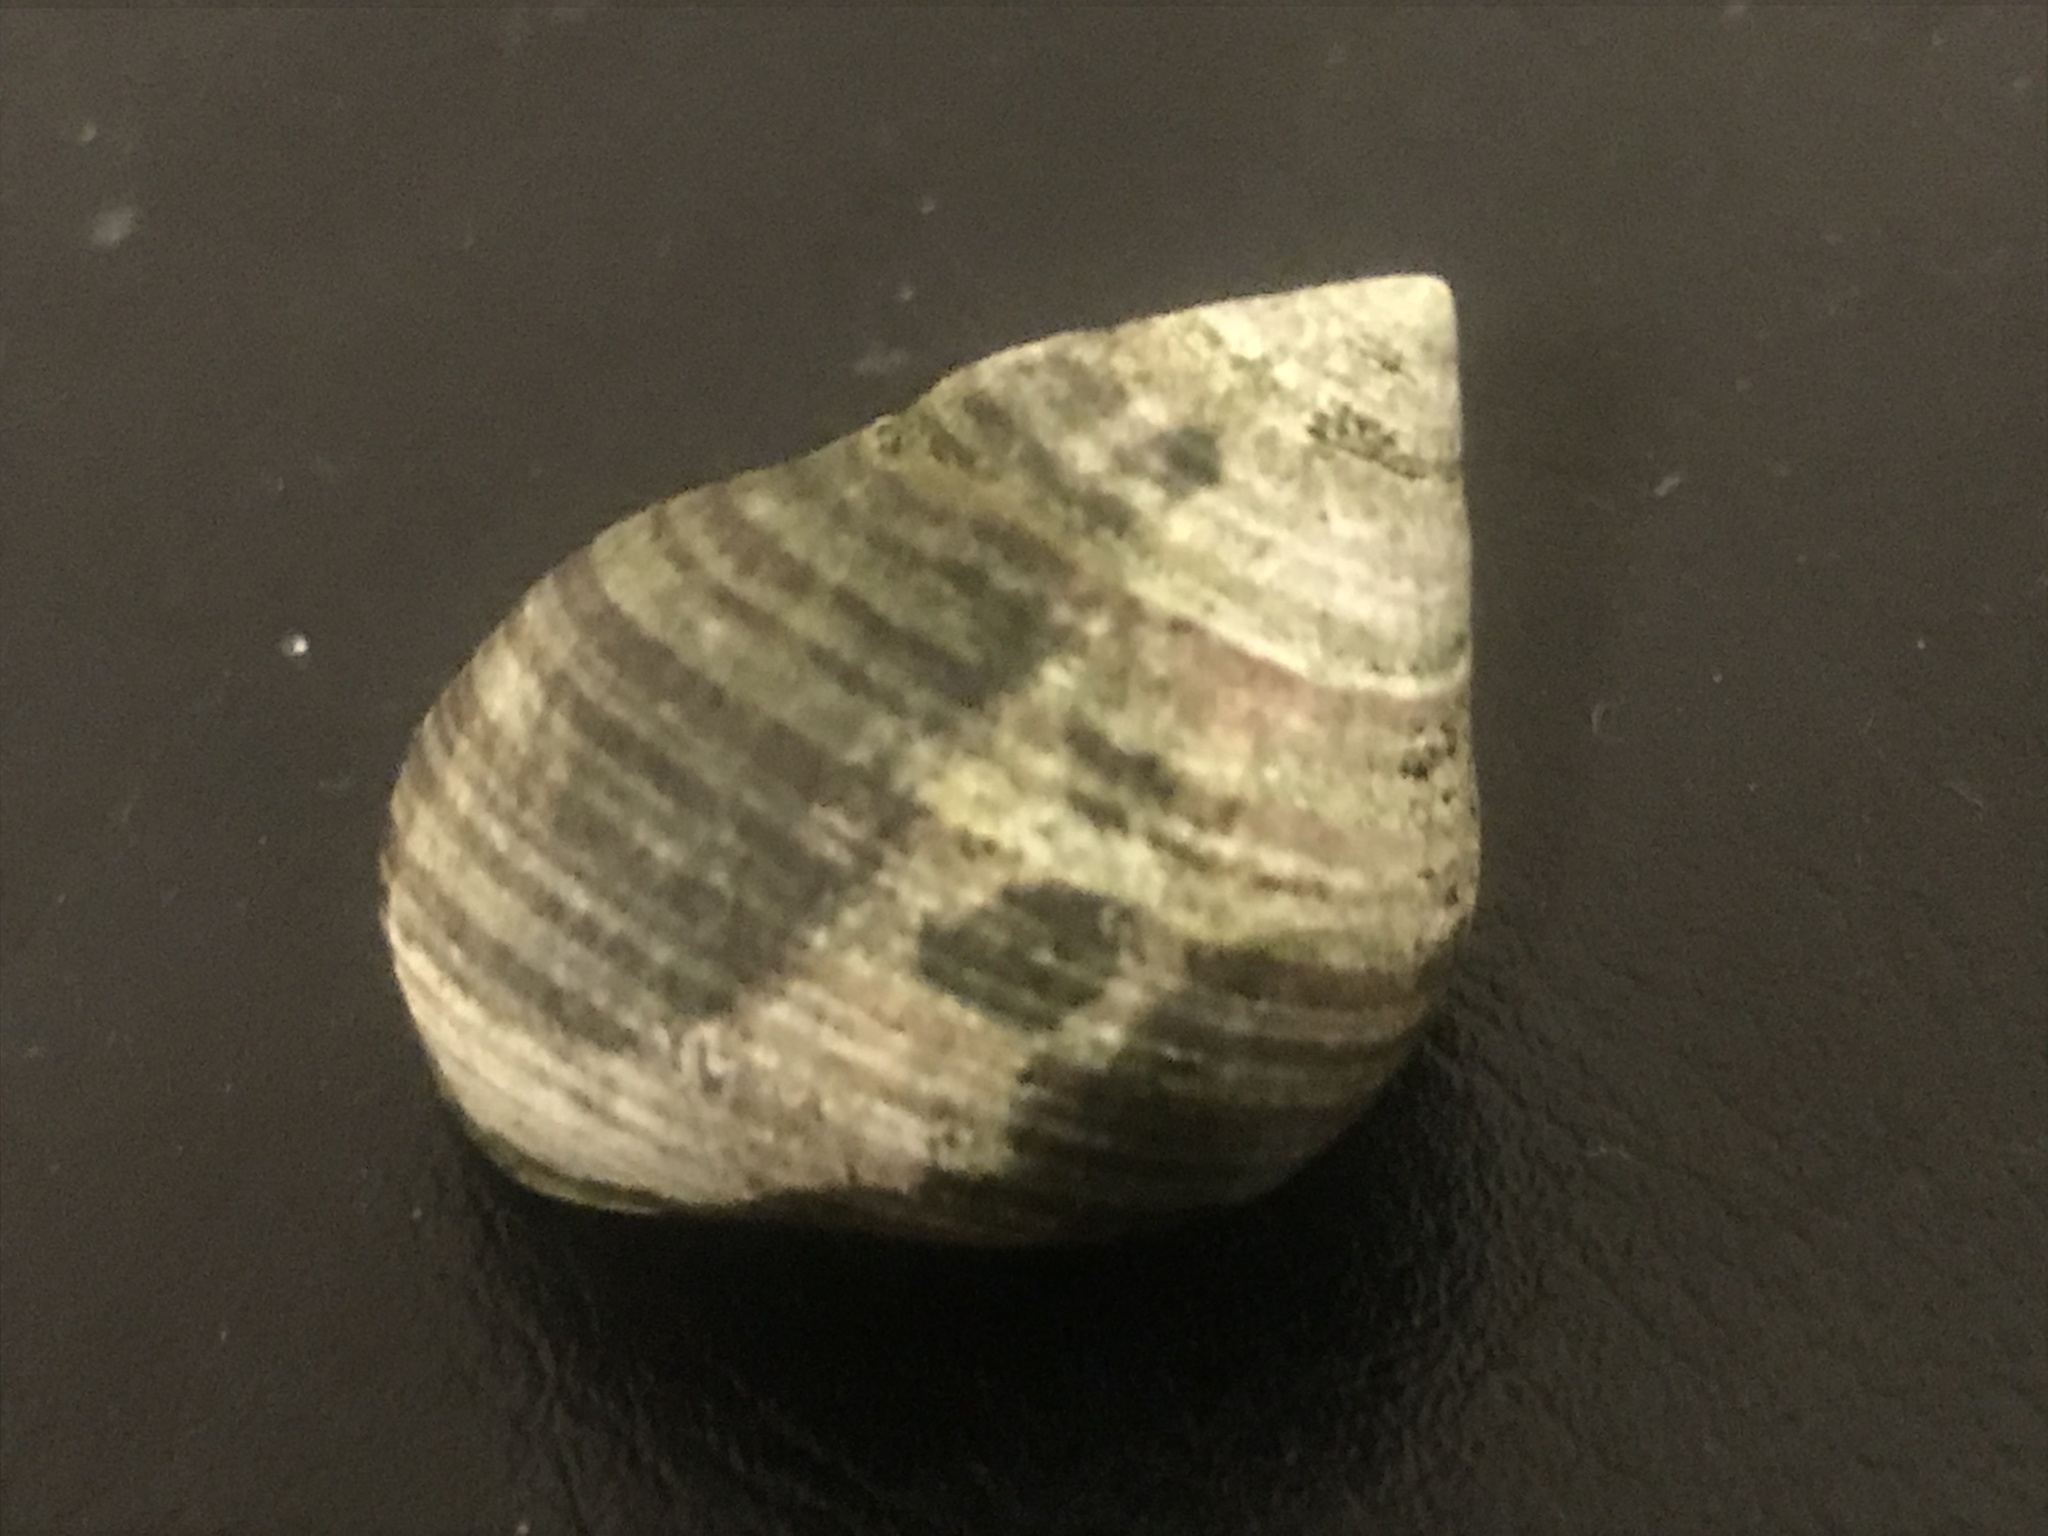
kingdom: Animalia
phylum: Mollusca
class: Gastropoda
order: Littorinimorpha
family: Littorinidae
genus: Littorina
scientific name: Littorina littorea
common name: Common periwinkle
